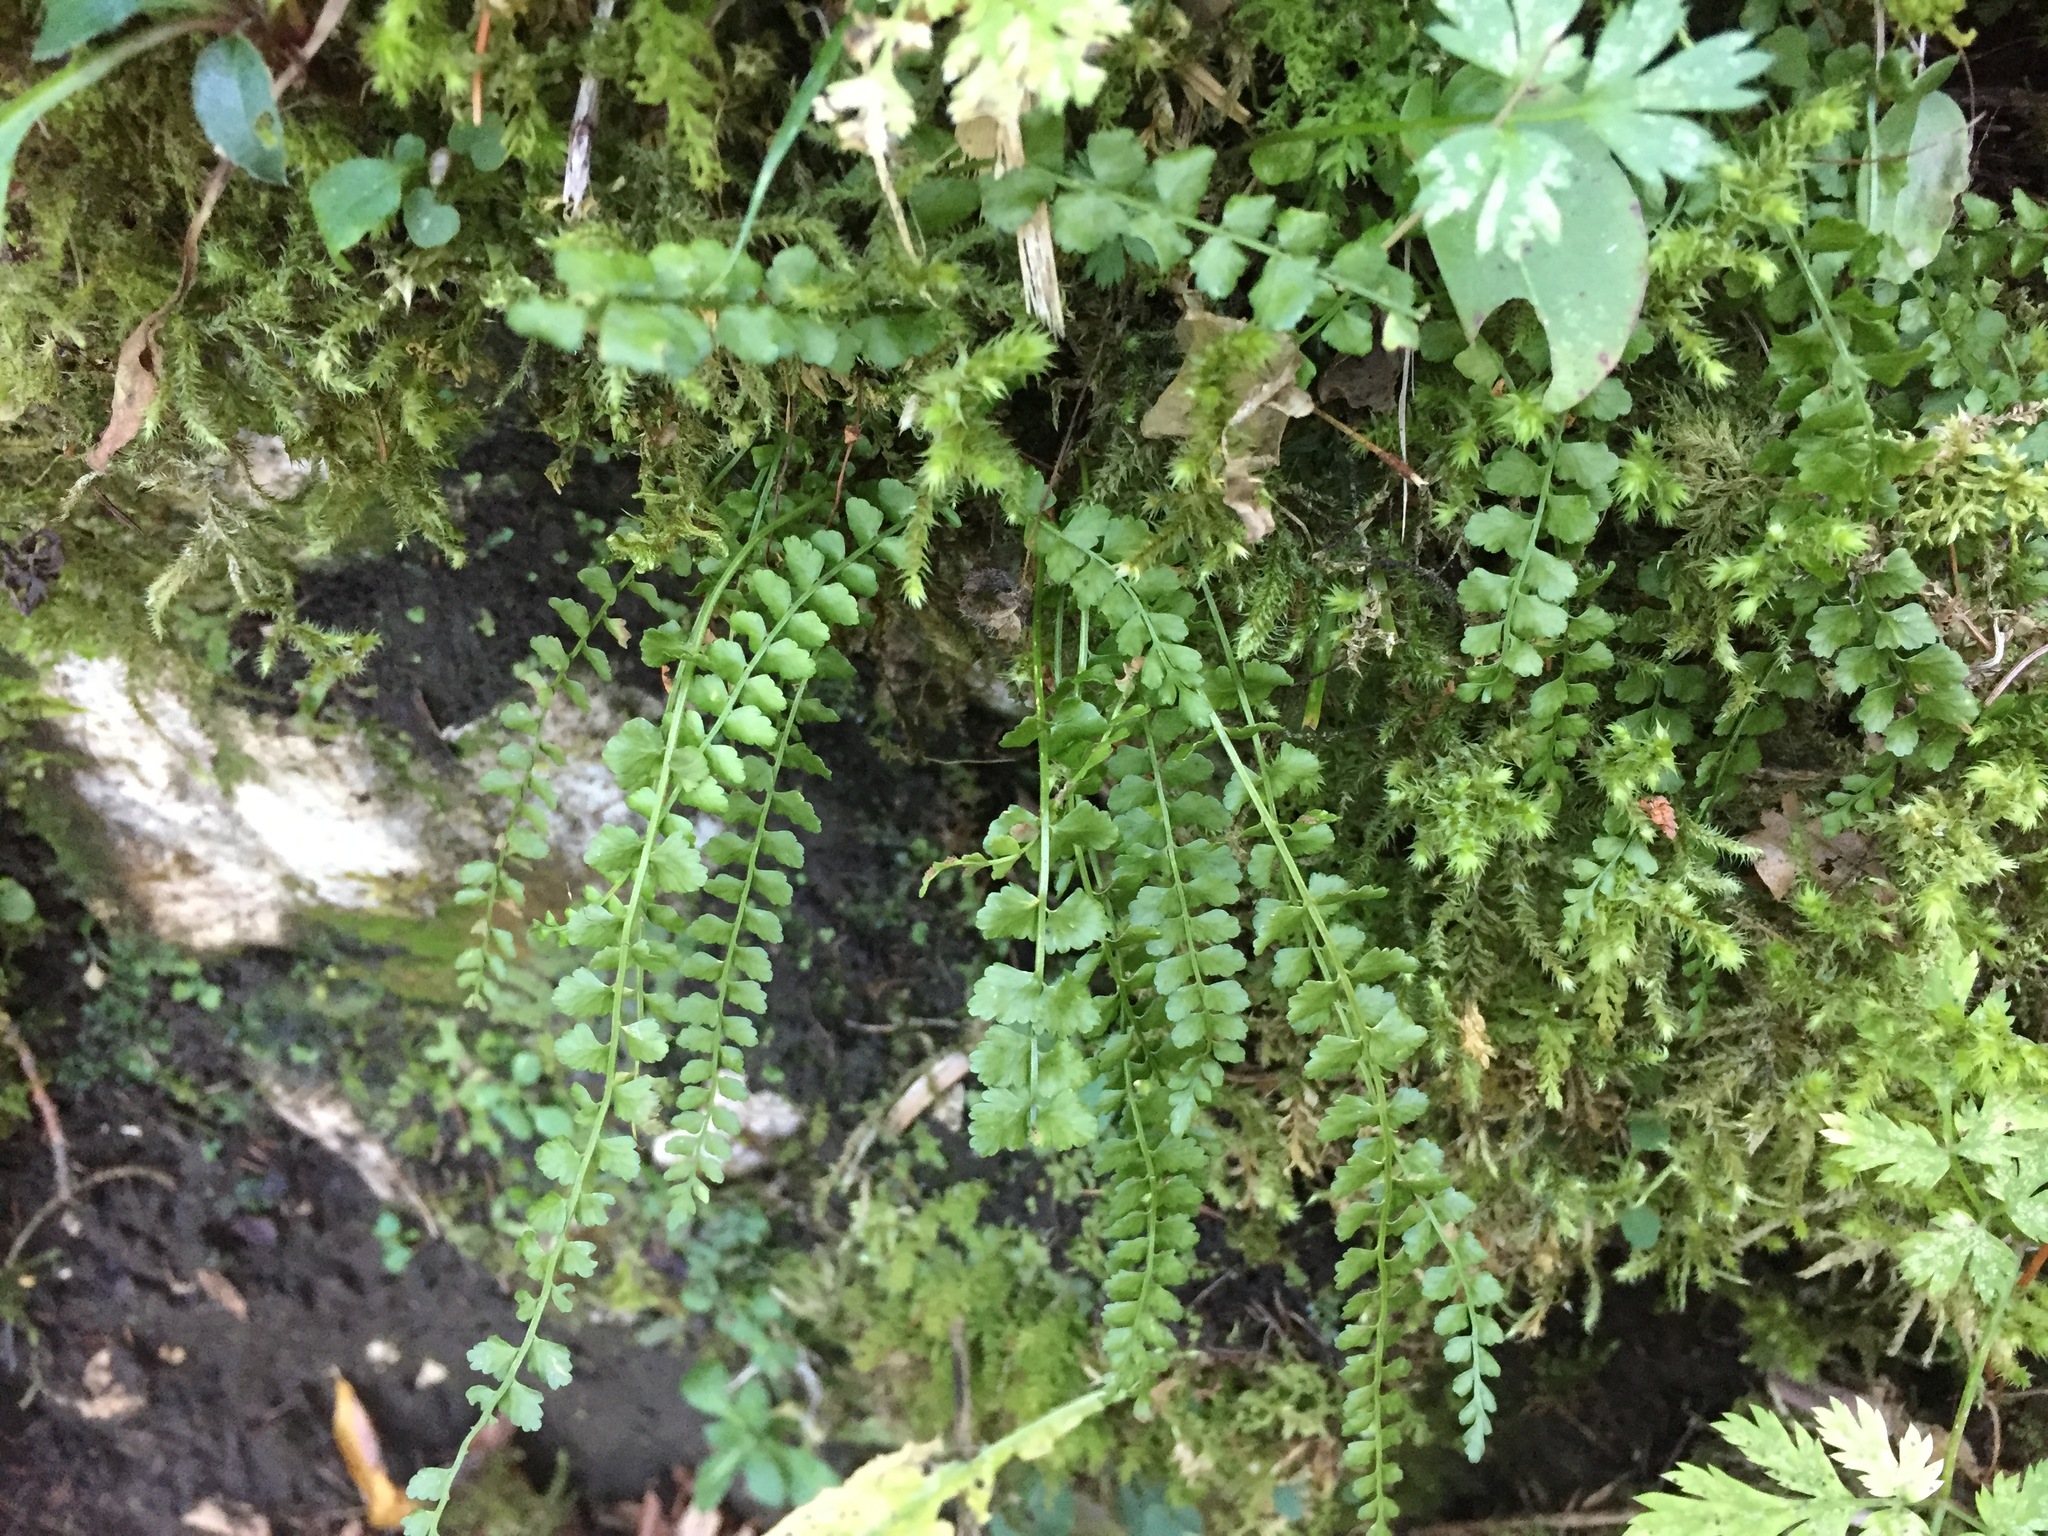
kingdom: Plantae
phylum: Tracheophyta
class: Polypodiopsida
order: Polypodiales
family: Aspleniaceae
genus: Asplenium
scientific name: Asplenium viride
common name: Green spleenwort
